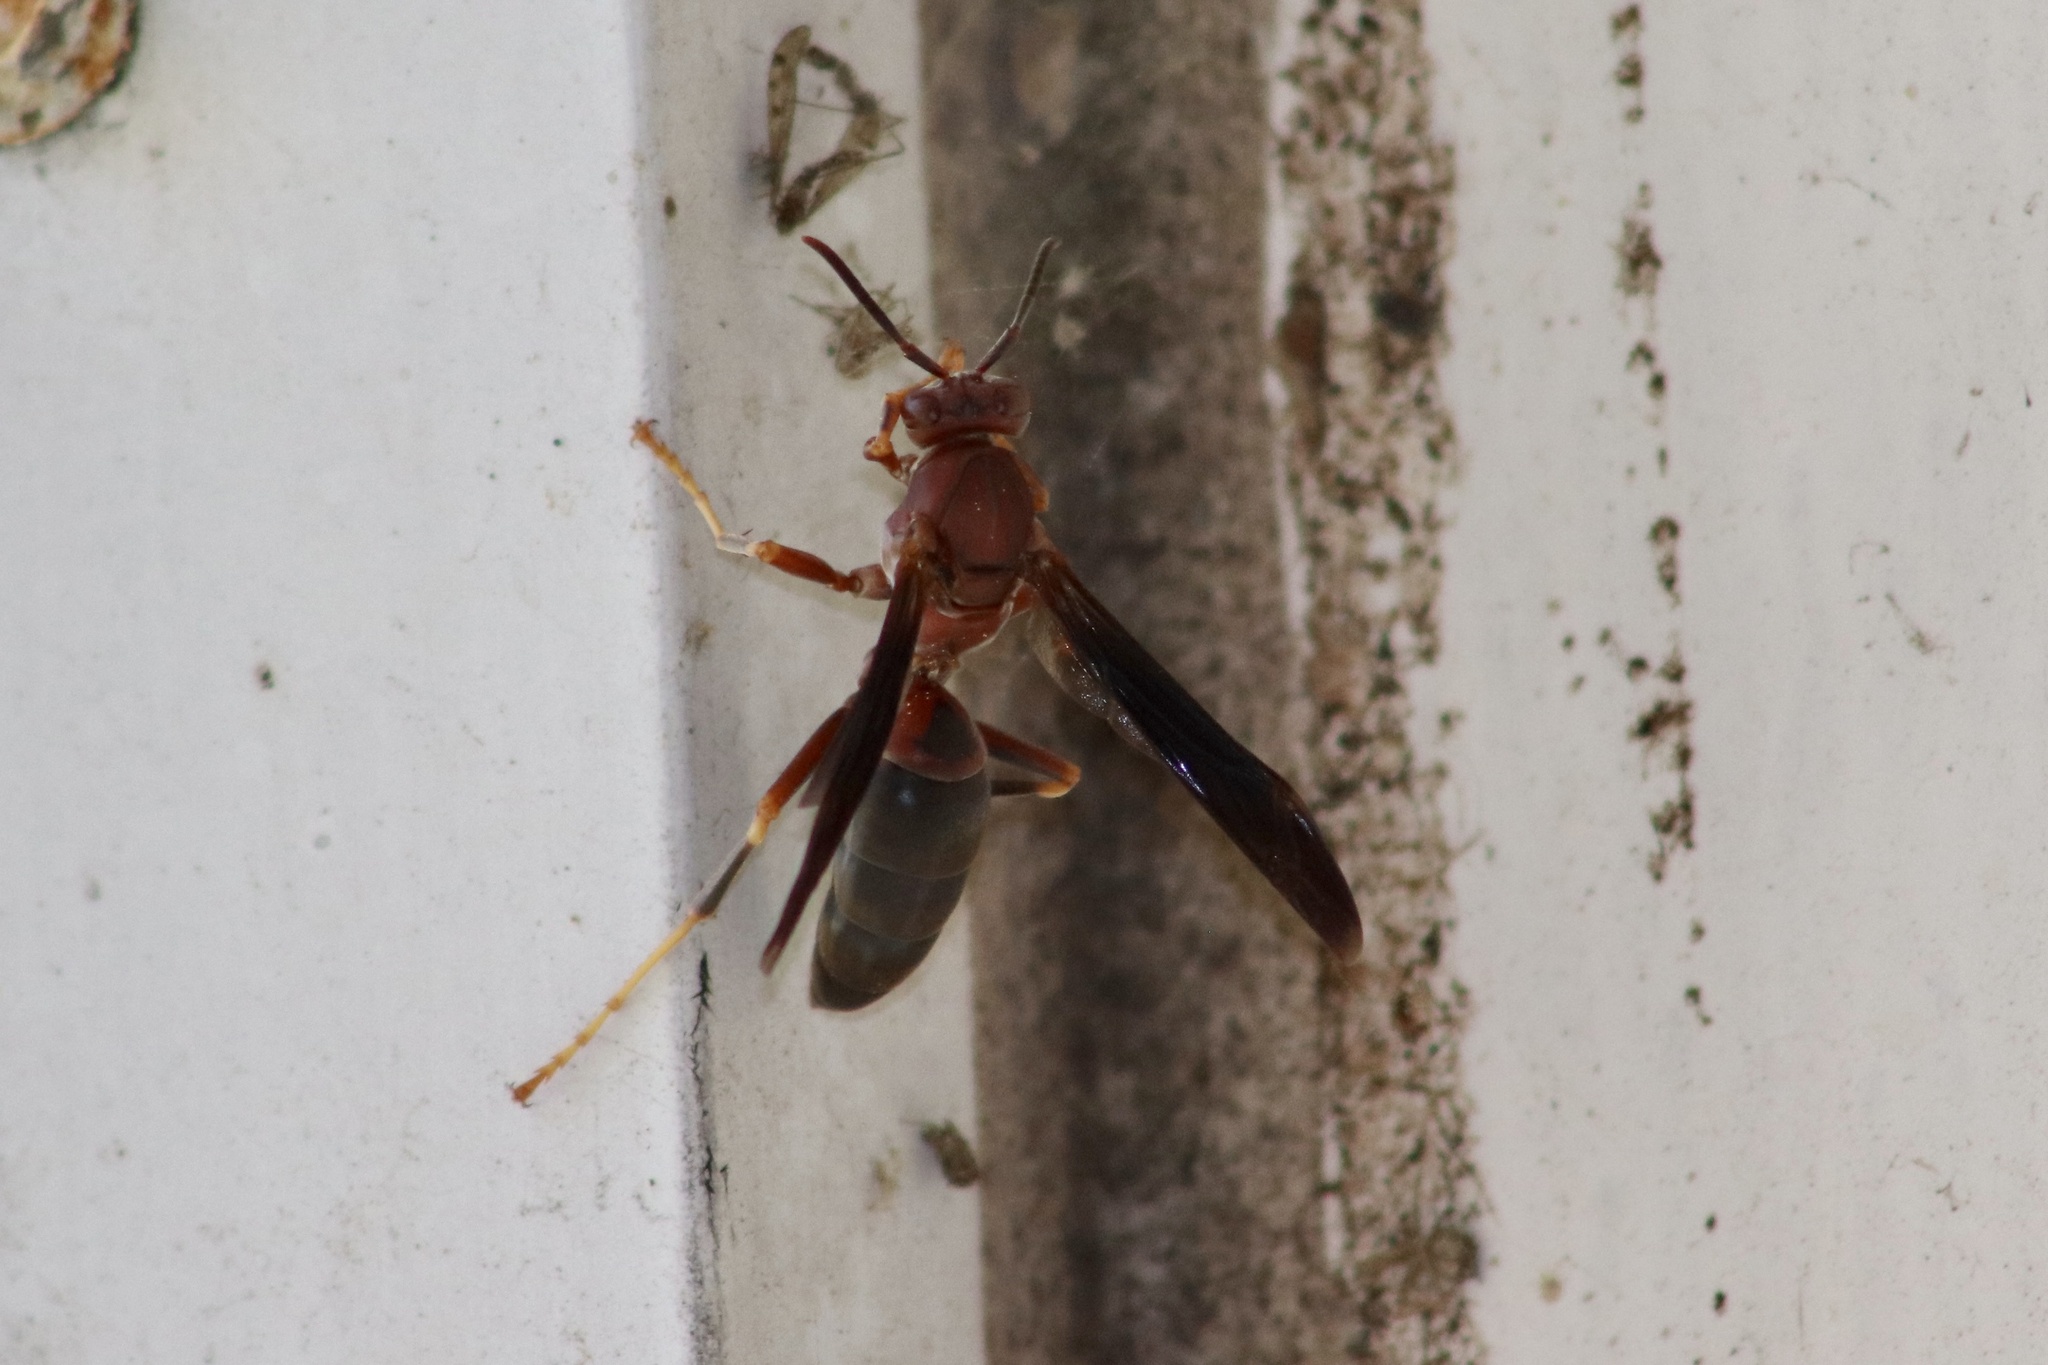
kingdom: Animalia
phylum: Arthropoda
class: Insecta
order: Hymenoptera
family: Eumenidae
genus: Polistes
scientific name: Polistes metricus
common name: Metric paper wasp
